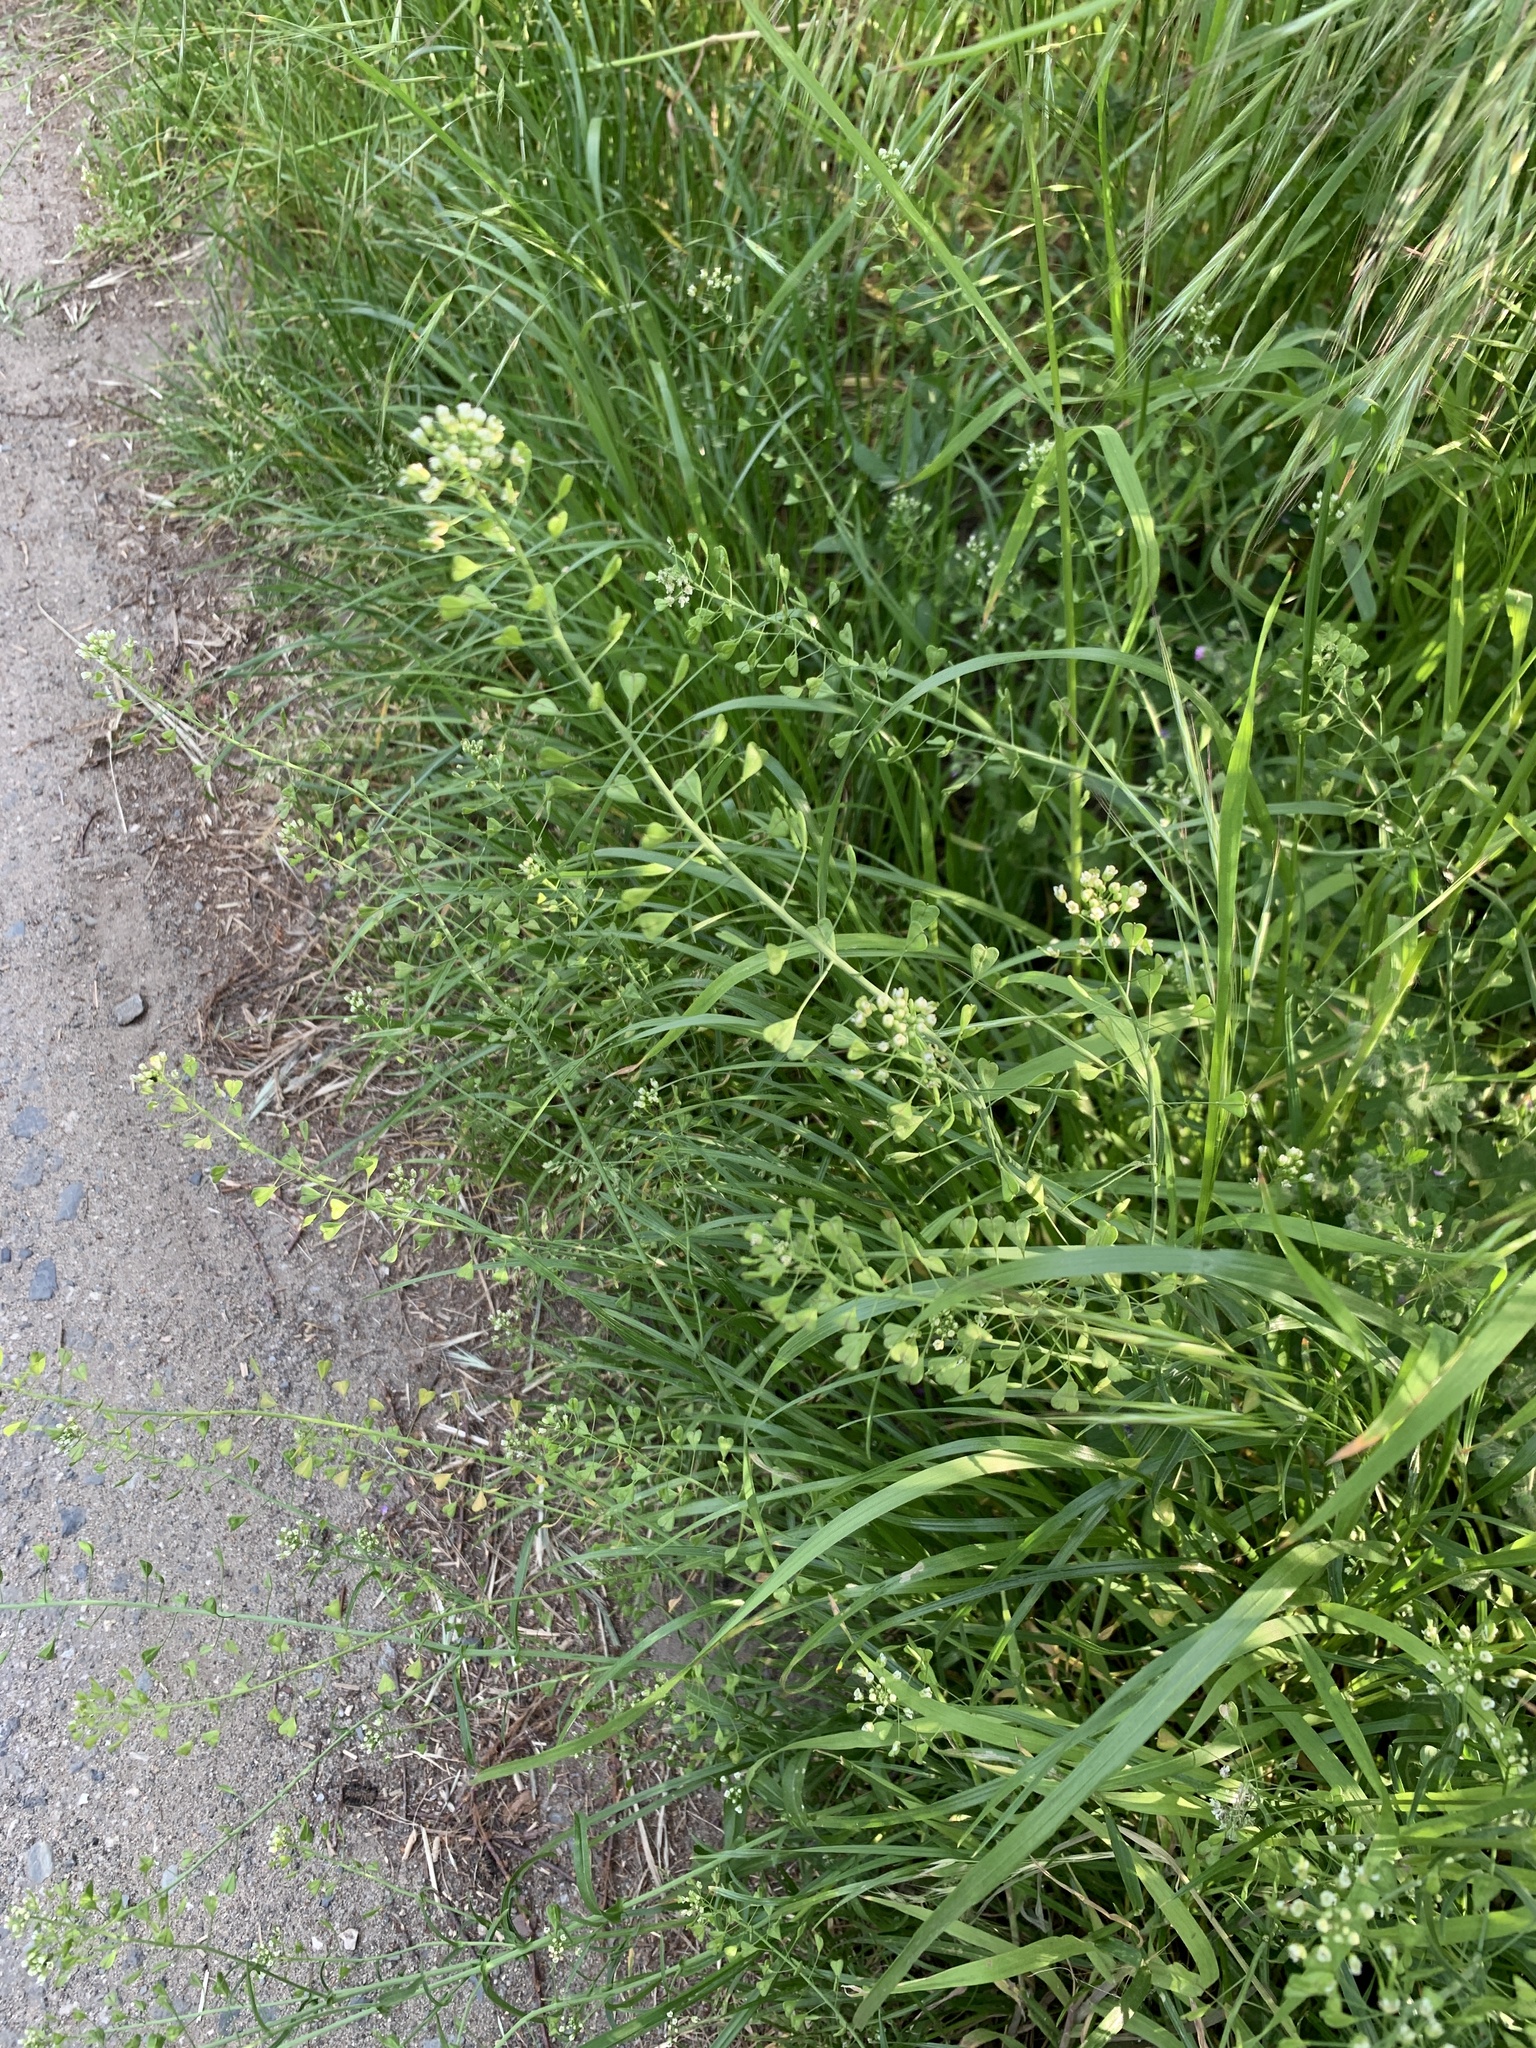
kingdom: Plantae
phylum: Tracheophyta
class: Magnoliopsida
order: Brassicales
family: Brassicaceae
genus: Capsella
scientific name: Capsella bursa-pastoris
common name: Shepherd's purse
